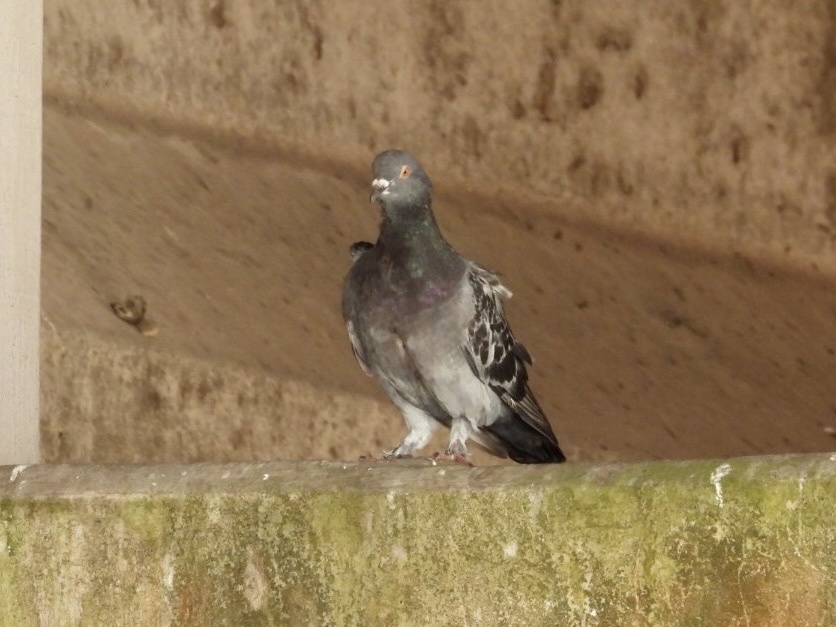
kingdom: Animalia
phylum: Chordata
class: Aves
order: Columbiformes
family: Columbidae
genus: Columba
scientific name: Columba livia
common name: Rock pigeon
